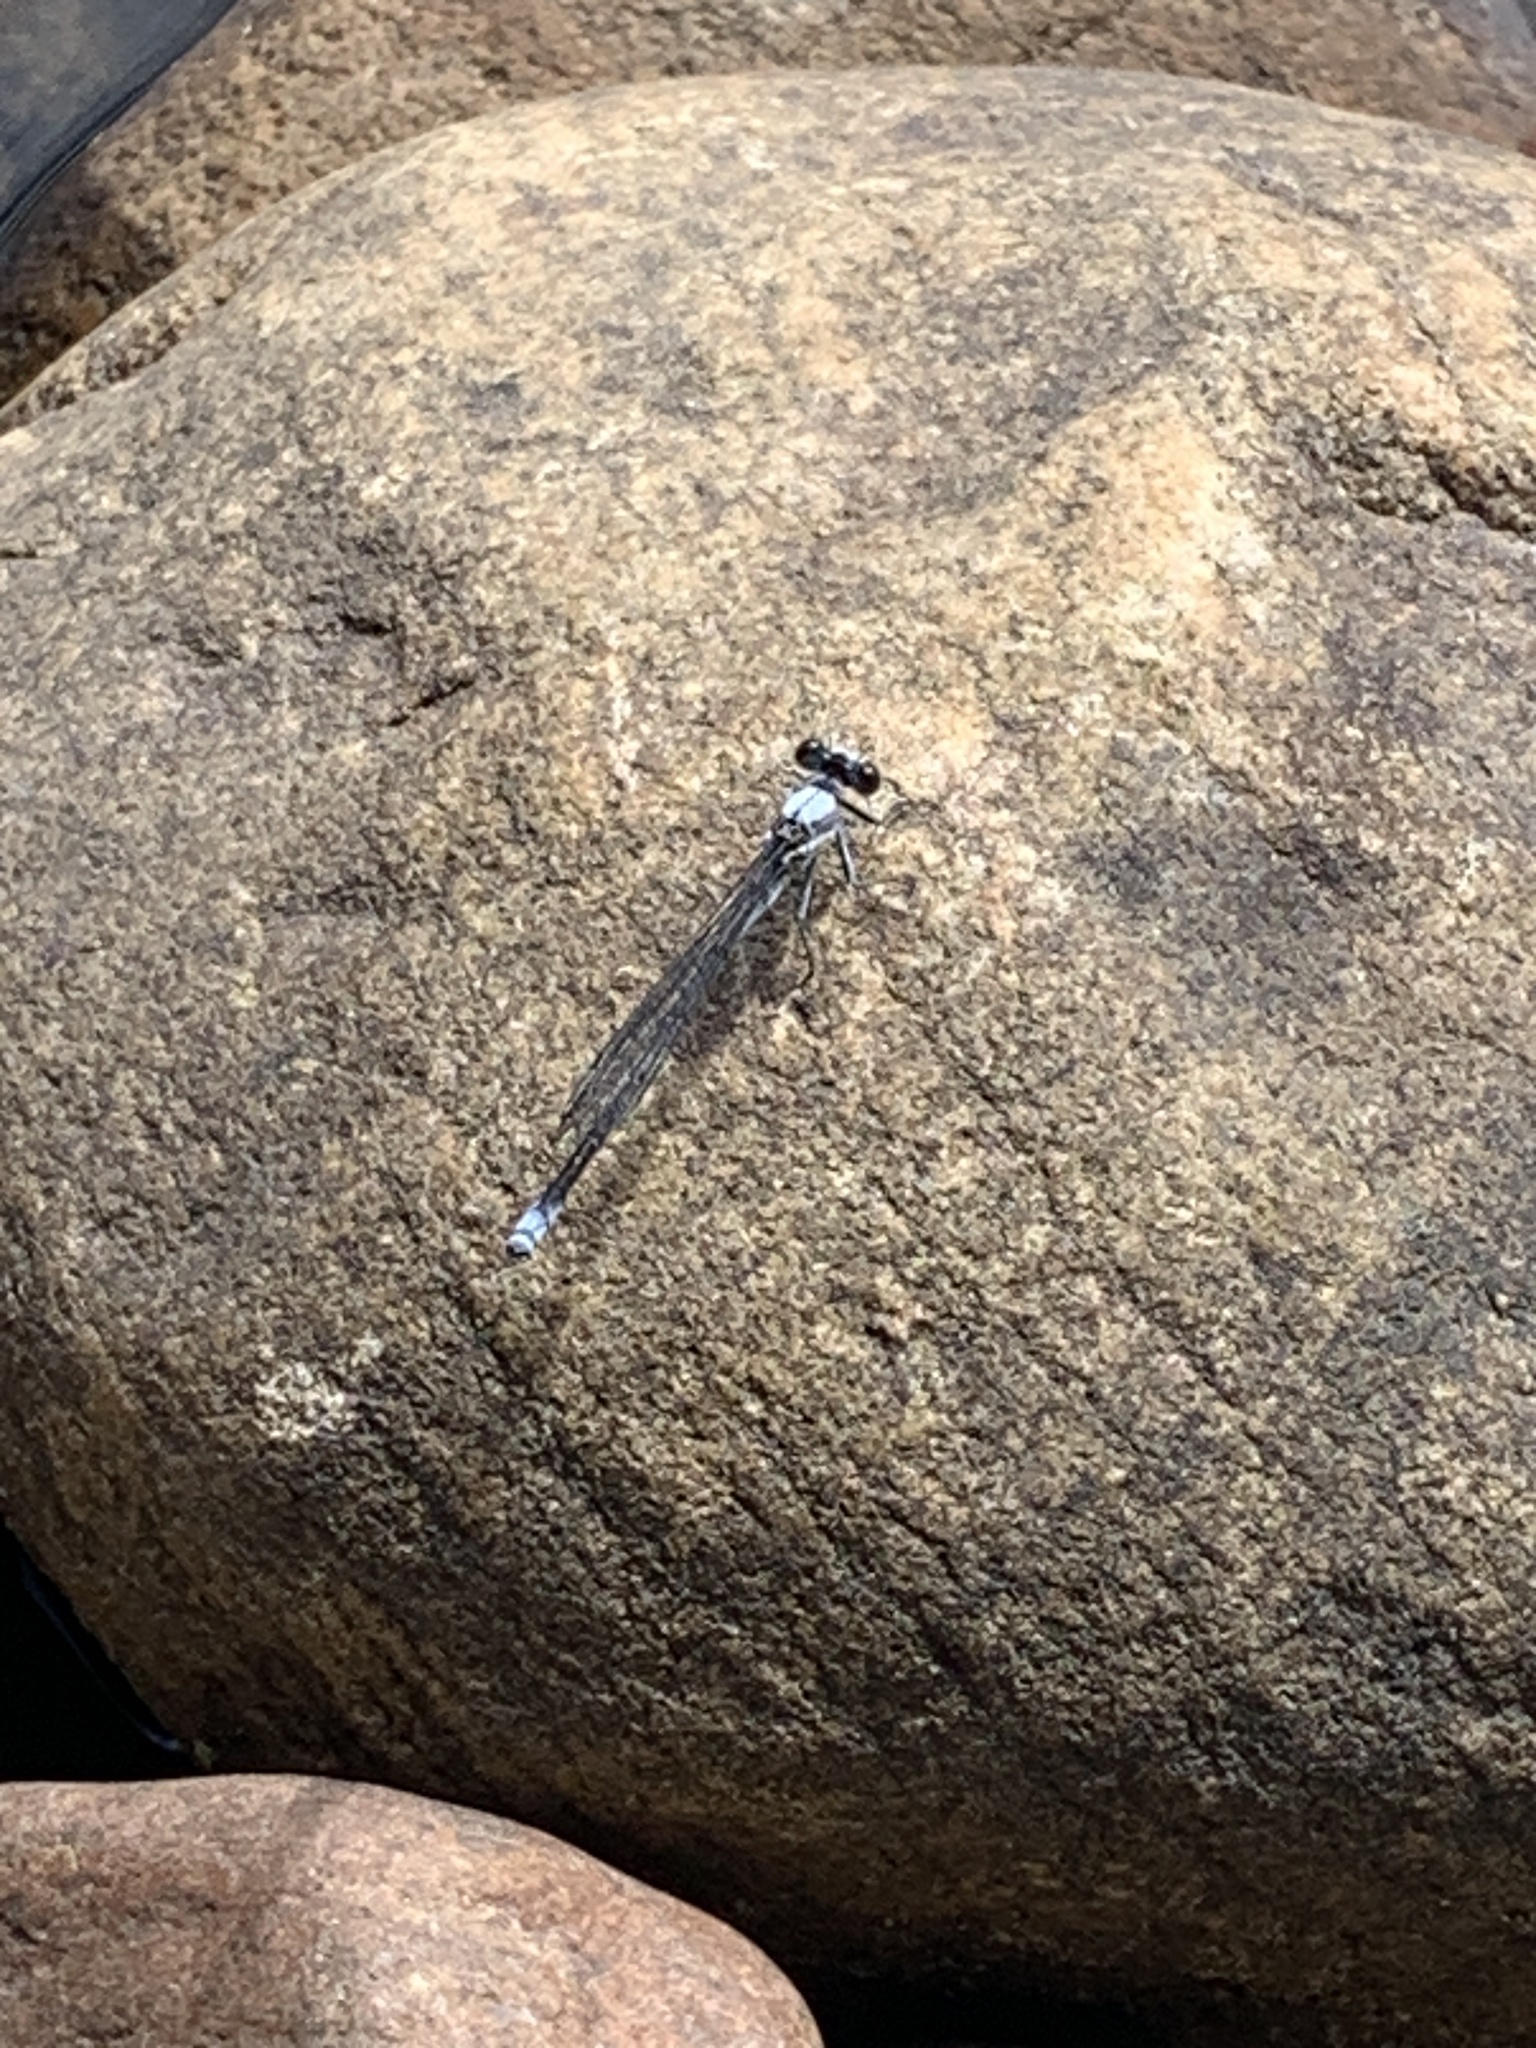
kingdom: Animalia
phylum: Arthropoda
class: Insecta
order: Odonata
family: Coenagrionidae
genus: Argia
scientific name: Argia moesta
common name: Powdered dancer
